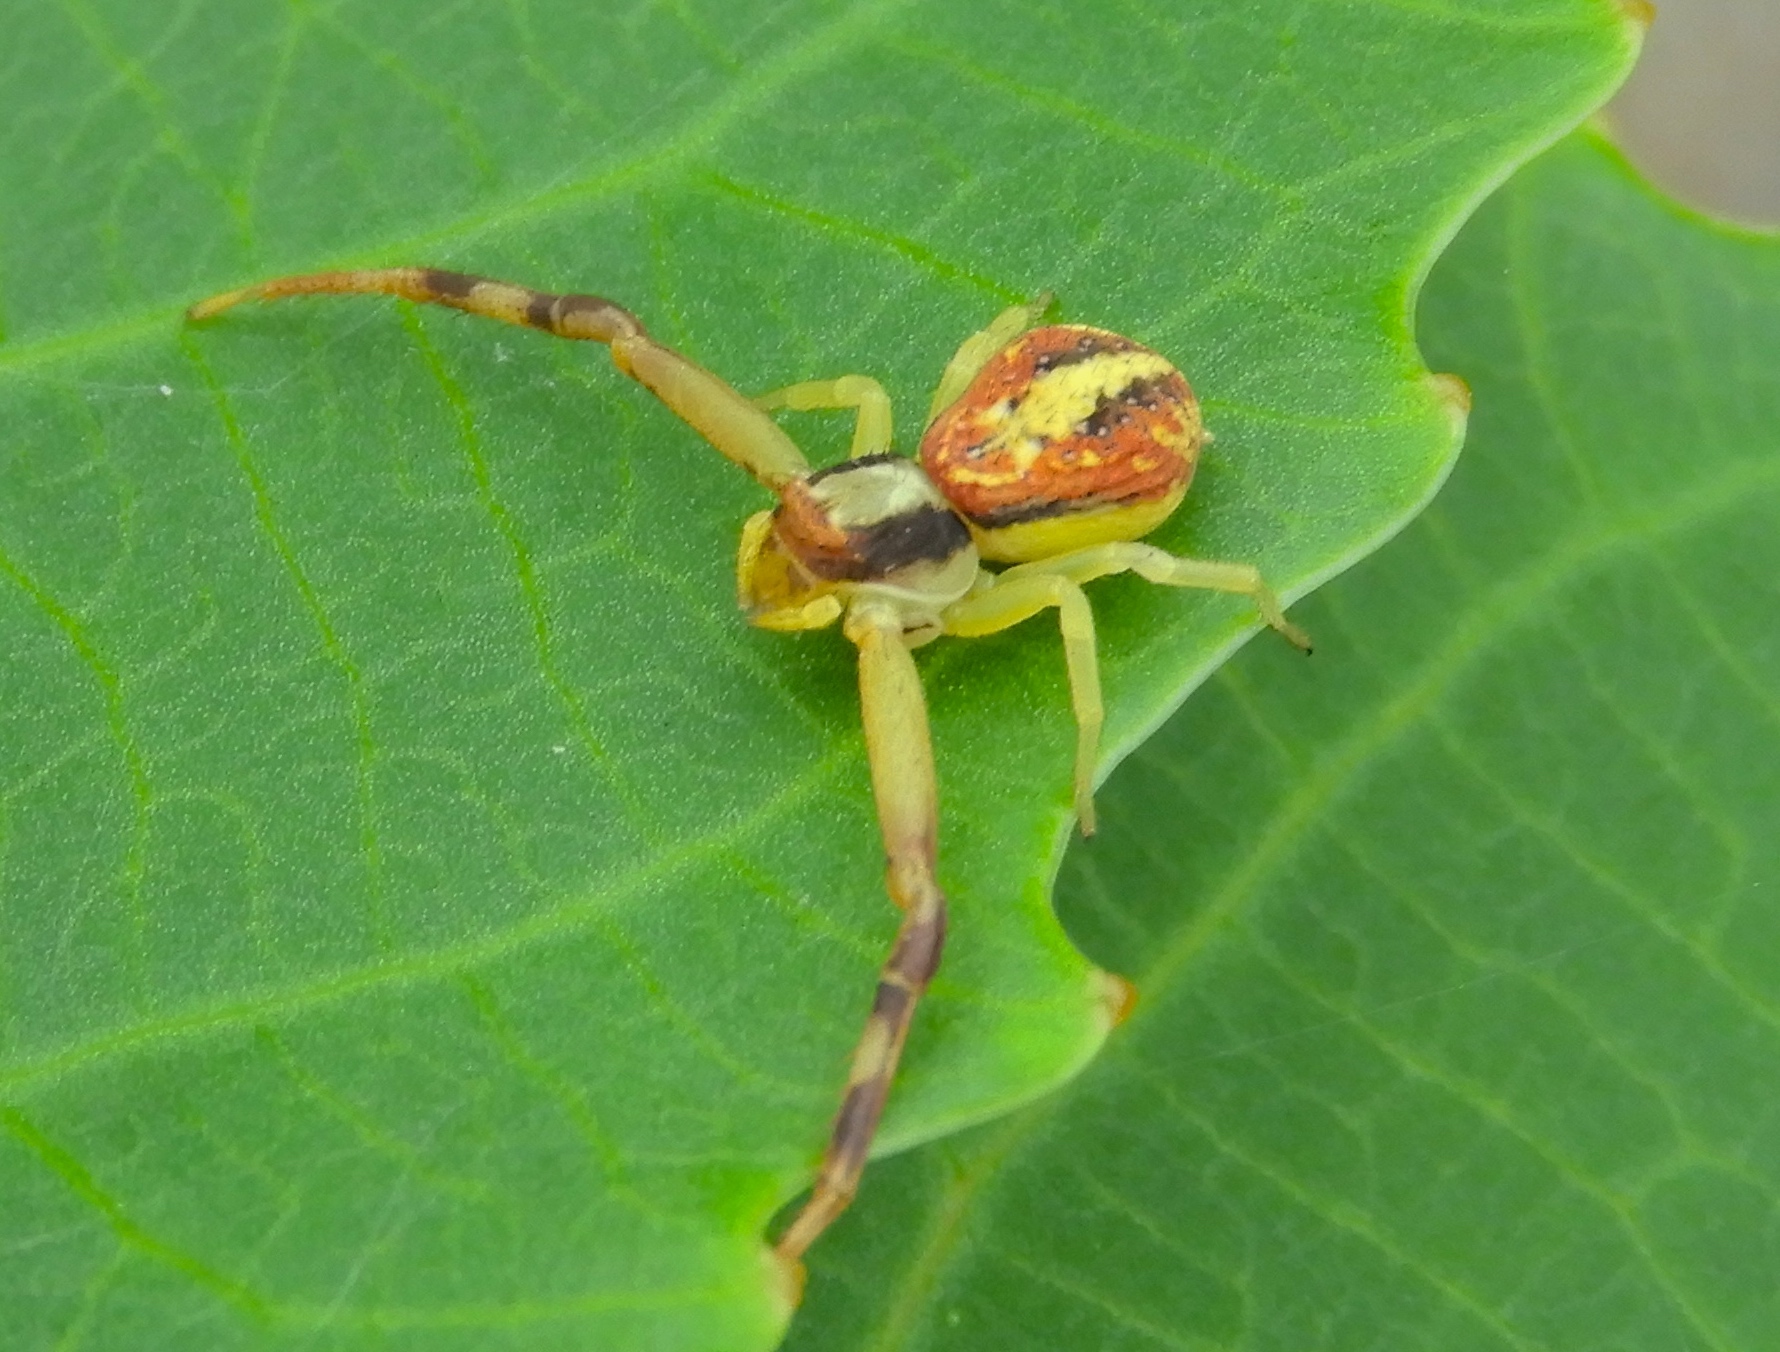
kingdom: Animalia
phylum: Arthropoda
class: Arachnida
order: Araneae
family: Thomisidae
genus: Mecaphesa
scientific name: Mecaphesa
